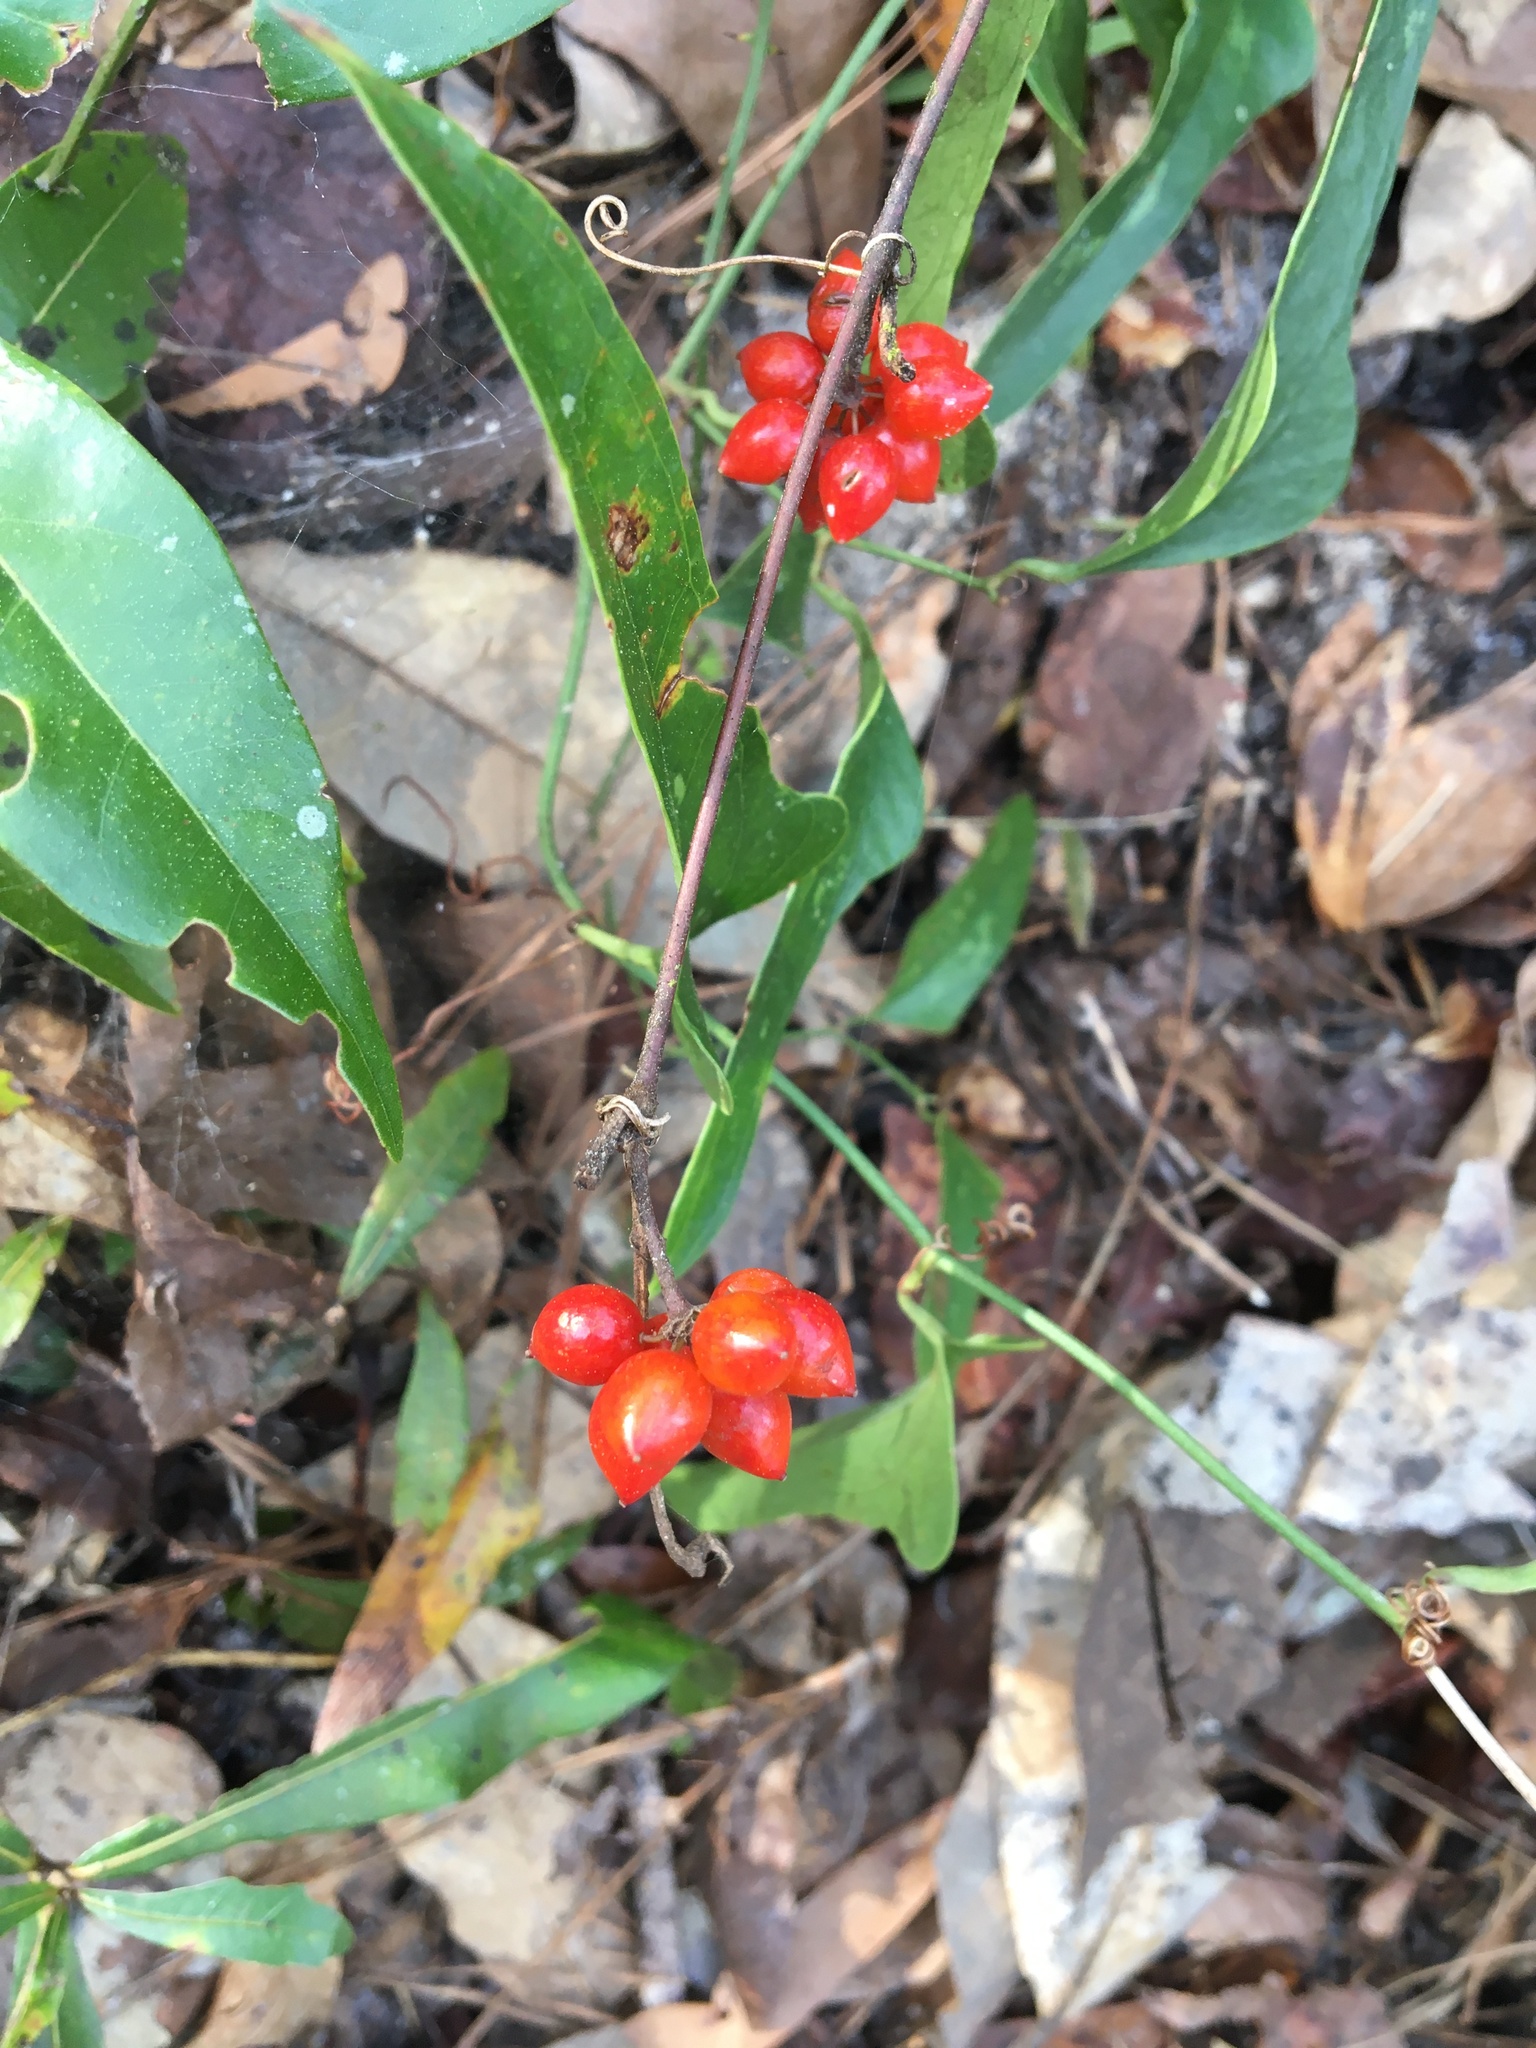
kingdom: Plantae
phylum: Tracheophyta
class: Liliopsida
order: Liliales
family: Smilacaceae
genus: Smilax
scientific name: Smilax pumila
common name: Sarsaparilla-vine
